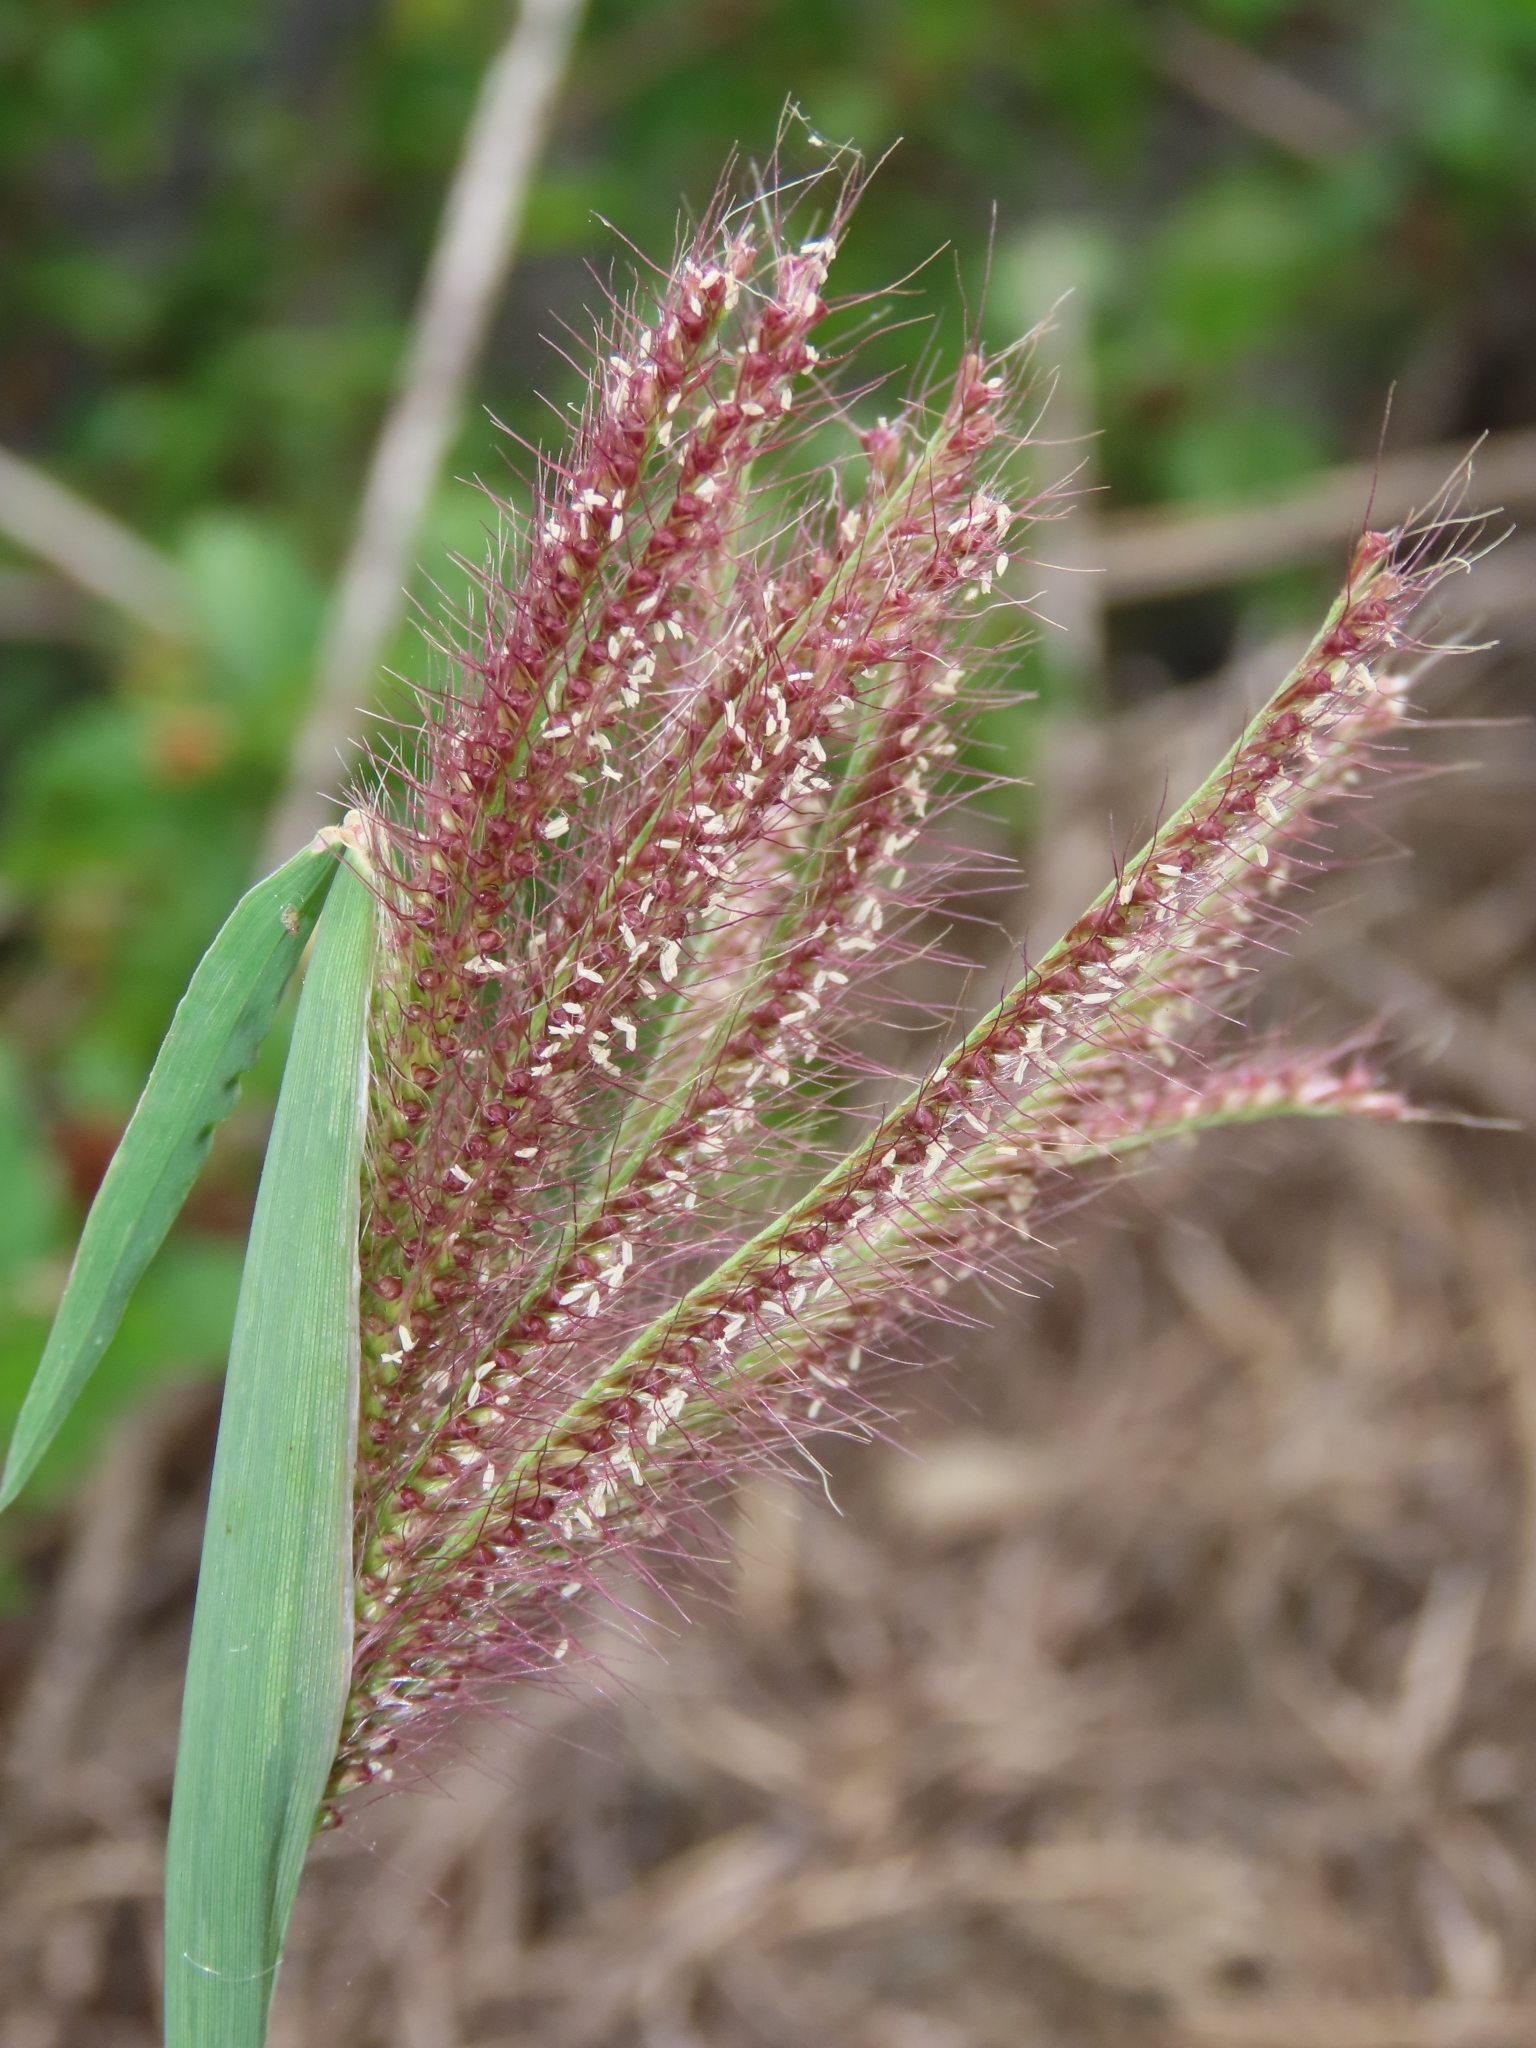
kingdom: Plantae
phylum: Tracheophyta
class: Liliopsida
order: Poales
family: Poaceae
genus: Chloris
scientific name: Chloris barbata
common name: Swollen fingergrass
